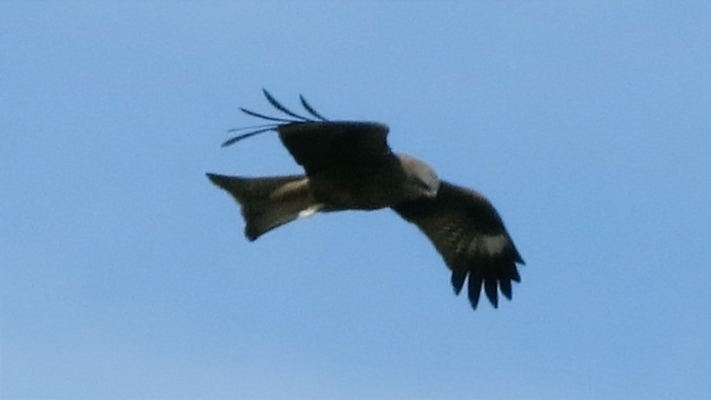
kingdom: Animalia
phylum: Chordata
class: Aves
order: Accipitriformes
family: Accipitridae
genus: Milvus
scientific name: Milvus migrans
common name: Black kite
